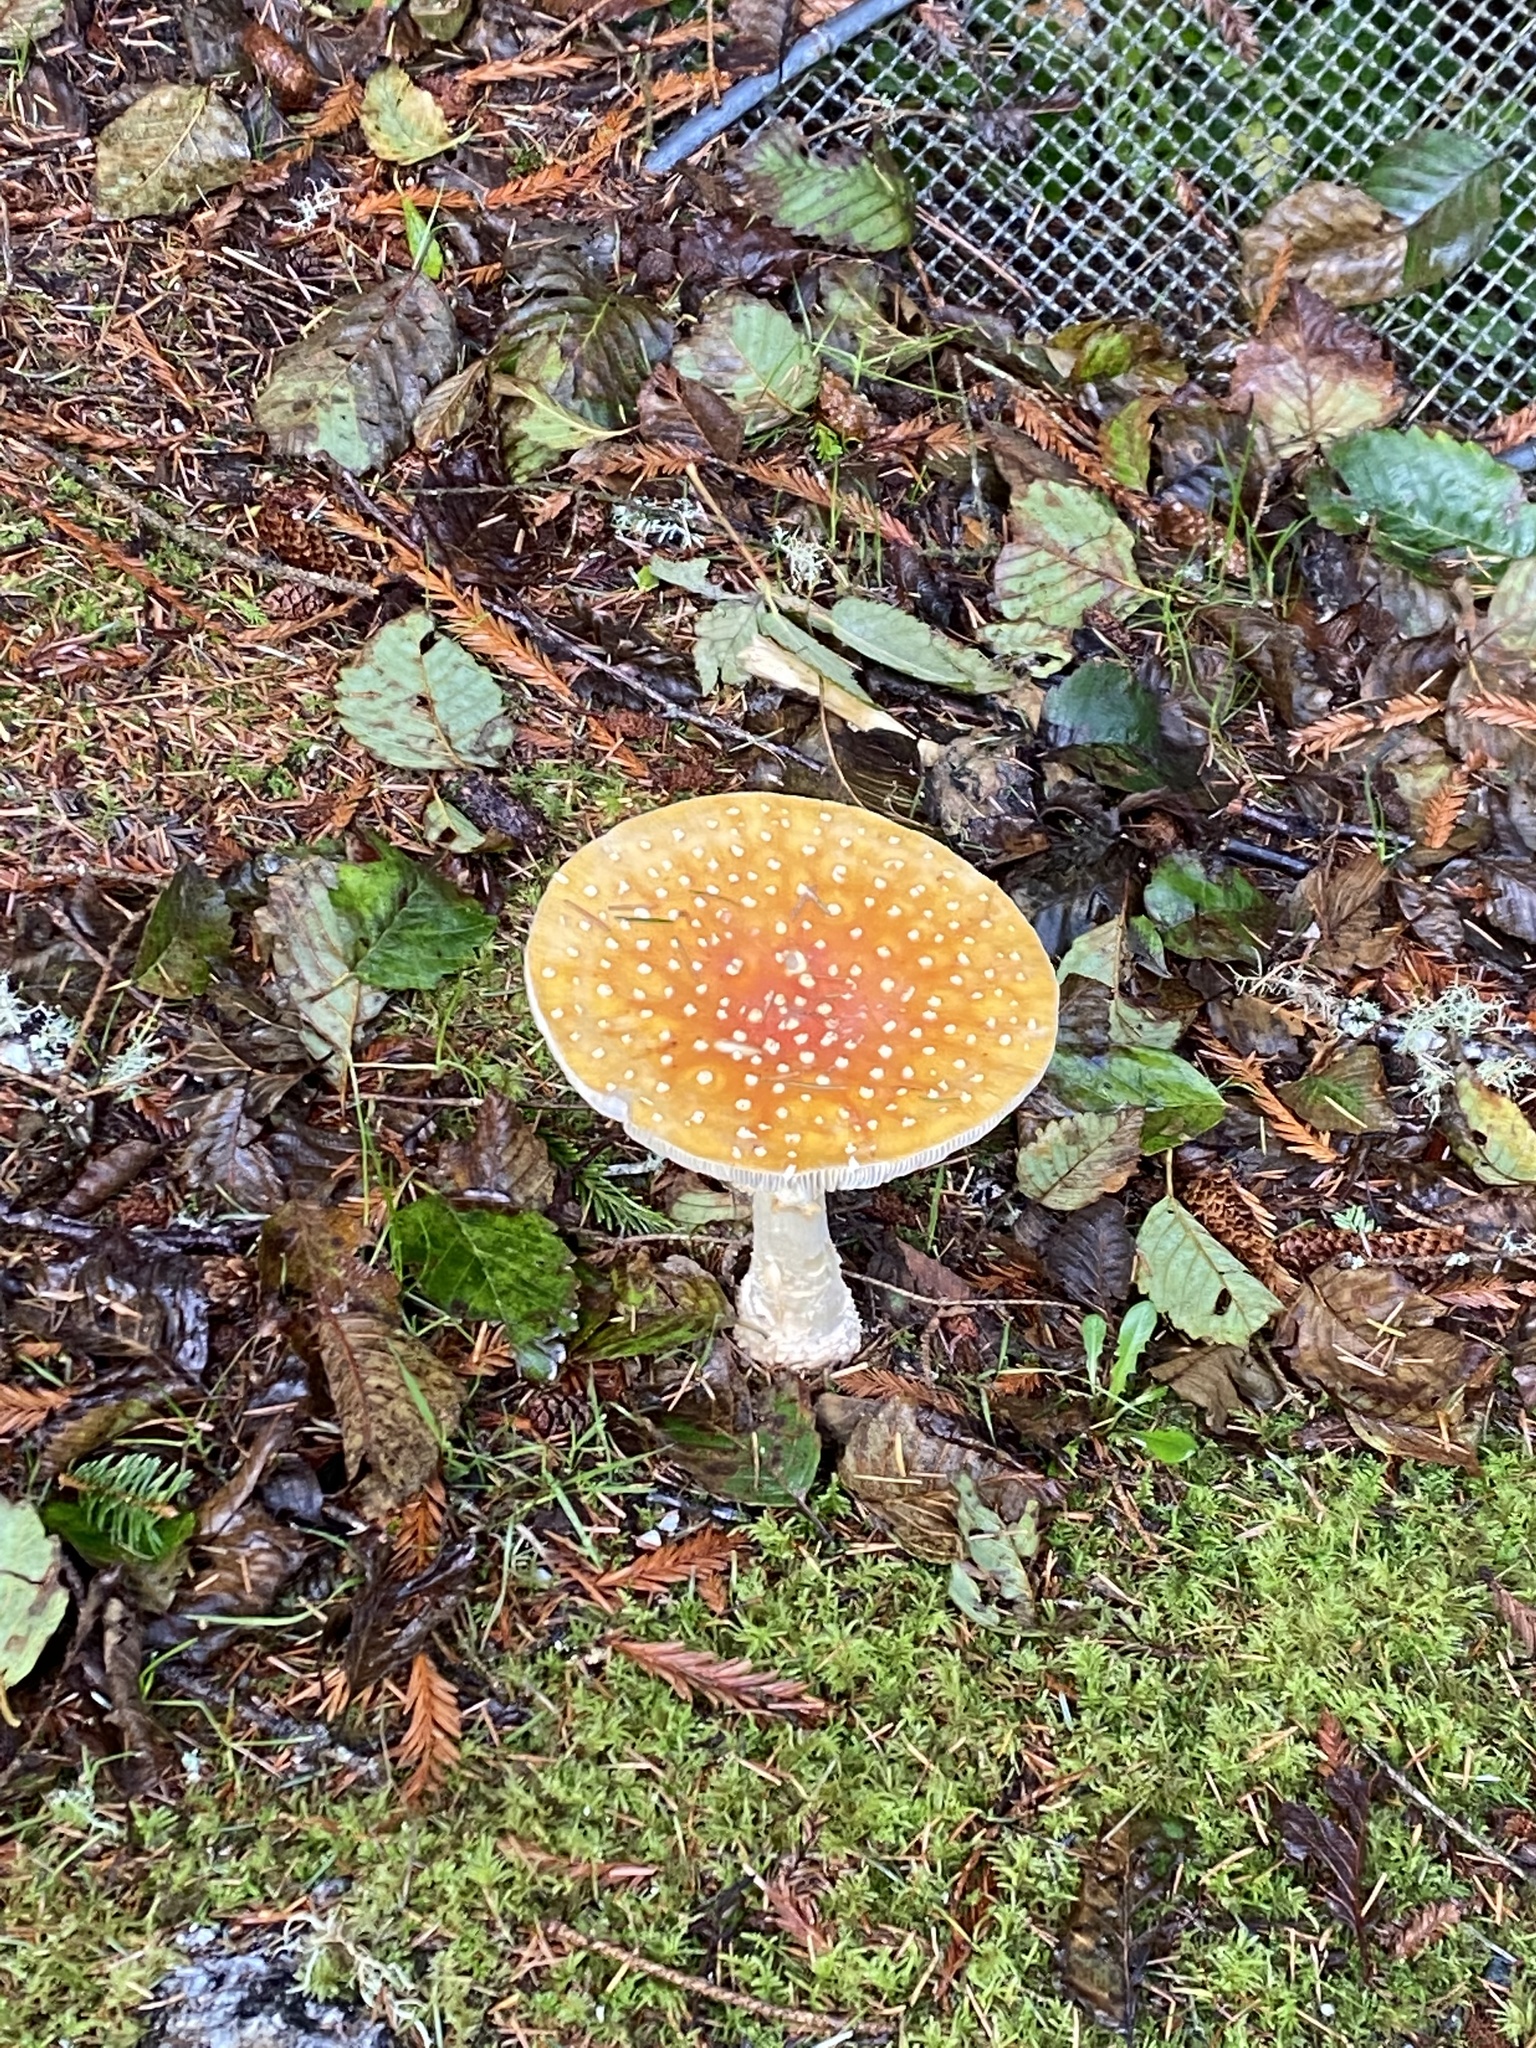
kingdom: Fungi
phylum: Basidiomycota
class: Agaricomycetes
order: Agaricales
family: Amanitaceae
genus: Amanita
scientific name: Amanita muscaria
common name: Fly agaric
